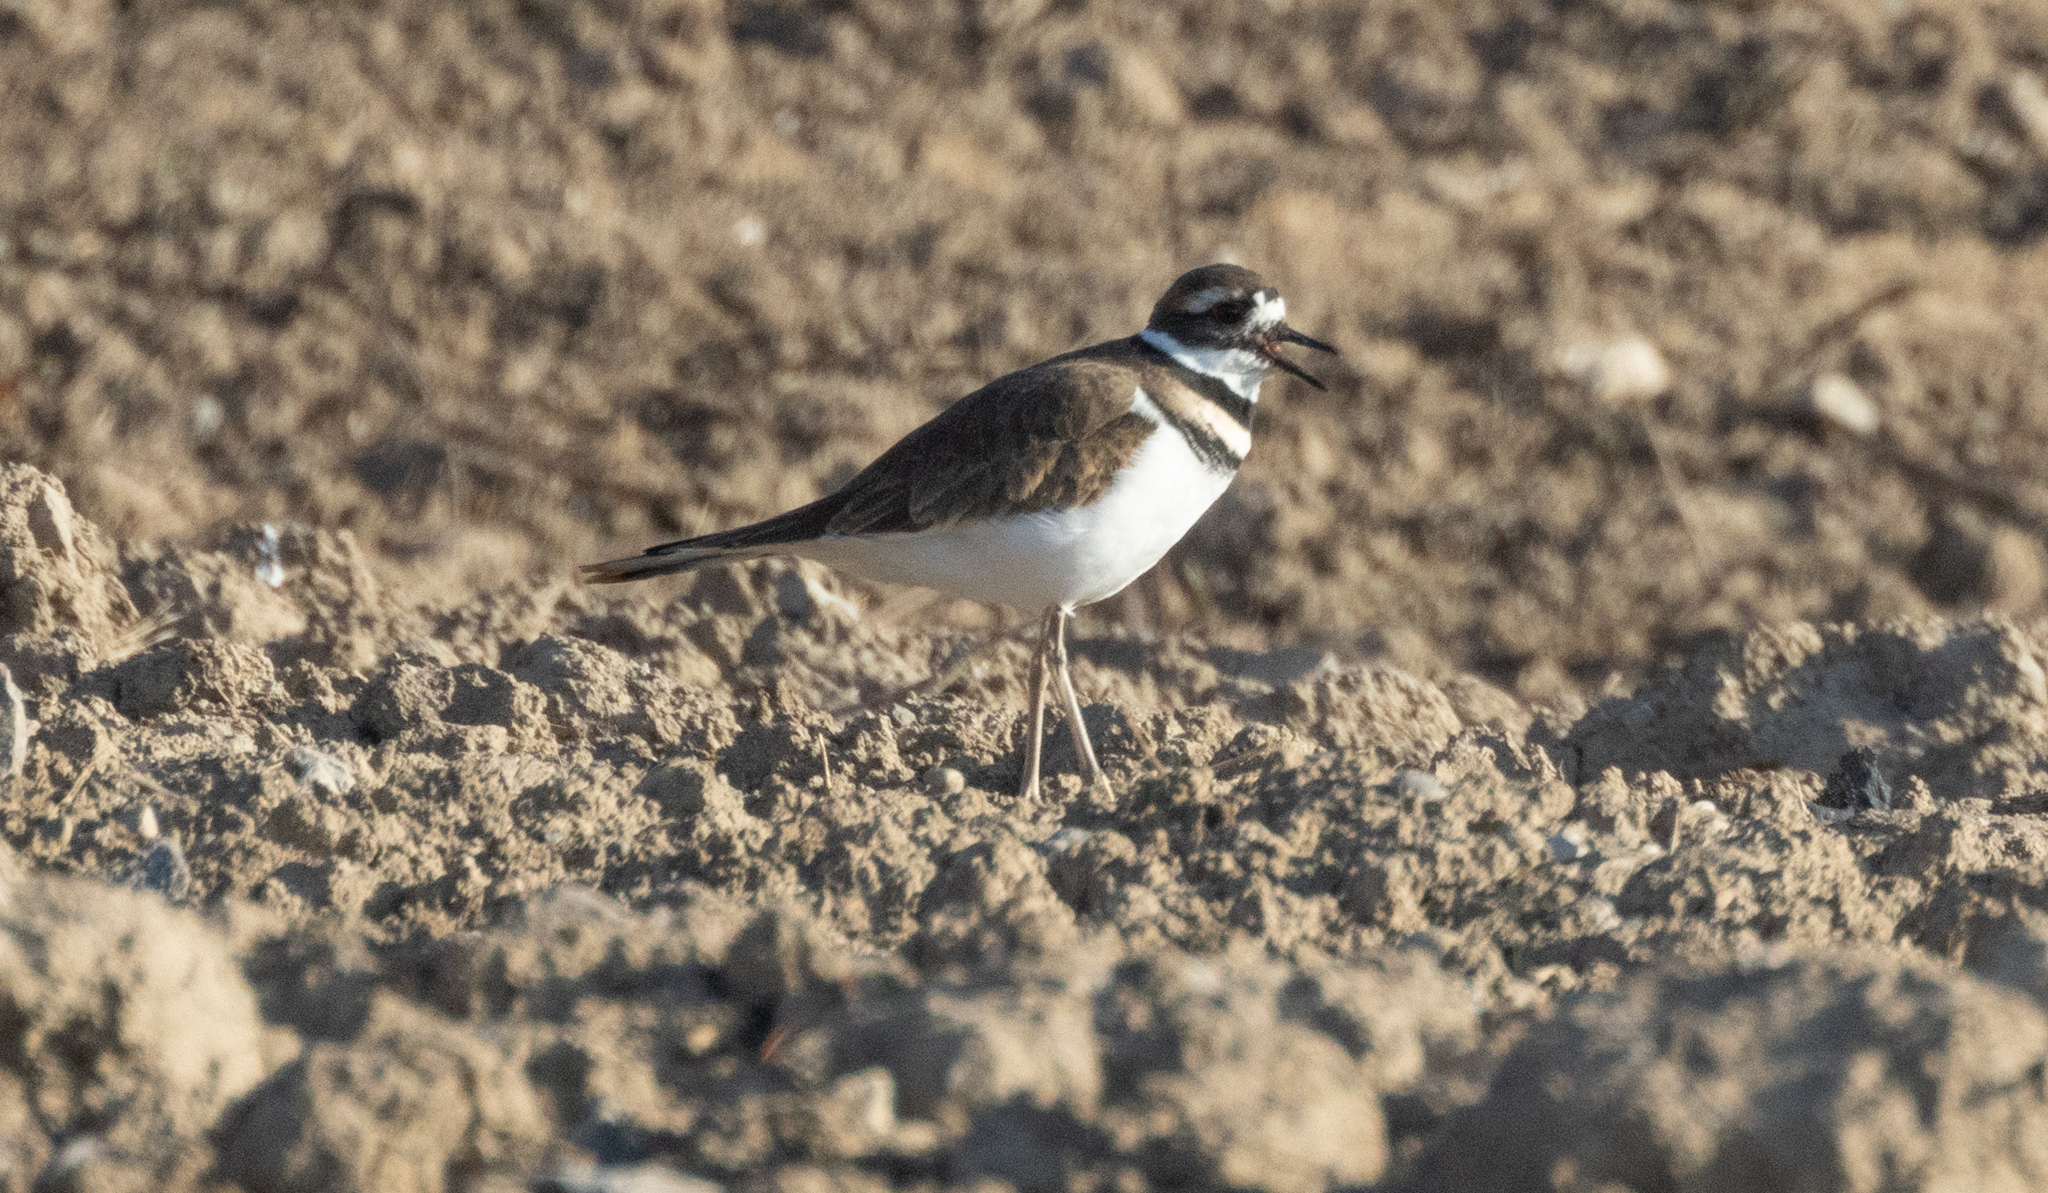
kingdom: Animalia
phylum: Chordata
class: Aves
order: Charadriiformes
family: Charadriidae
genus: Charadrius
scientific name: Charadrius vociferus
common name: Killdeer
